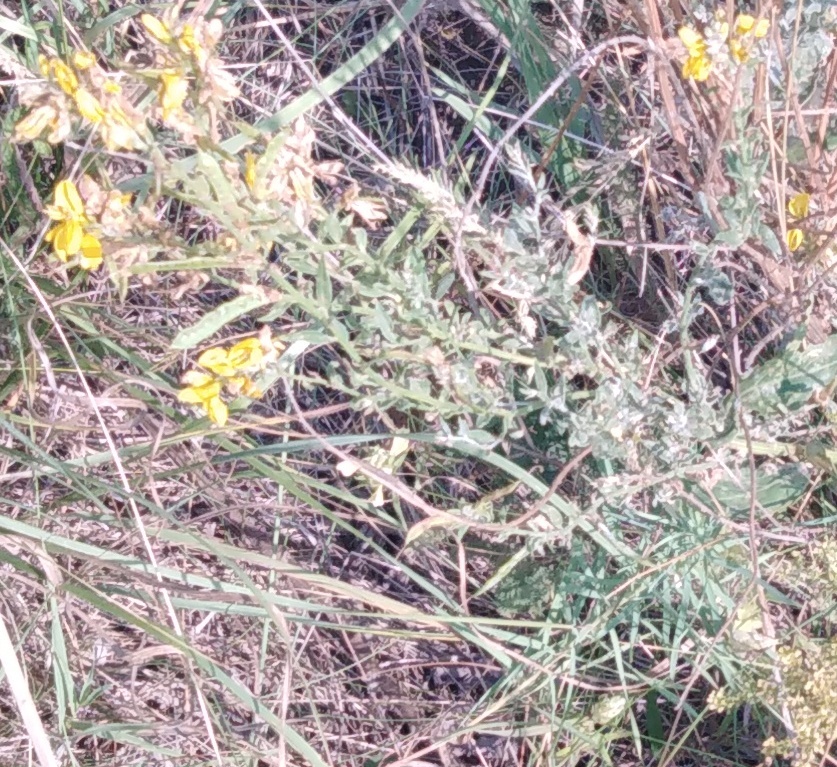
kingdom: Plantae
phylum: Tracheophyta
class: Magnoliopsida
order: Fabales
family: Fabaceae
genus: Melilotus
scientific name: Melilotus officinalis
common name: Sweetclover
